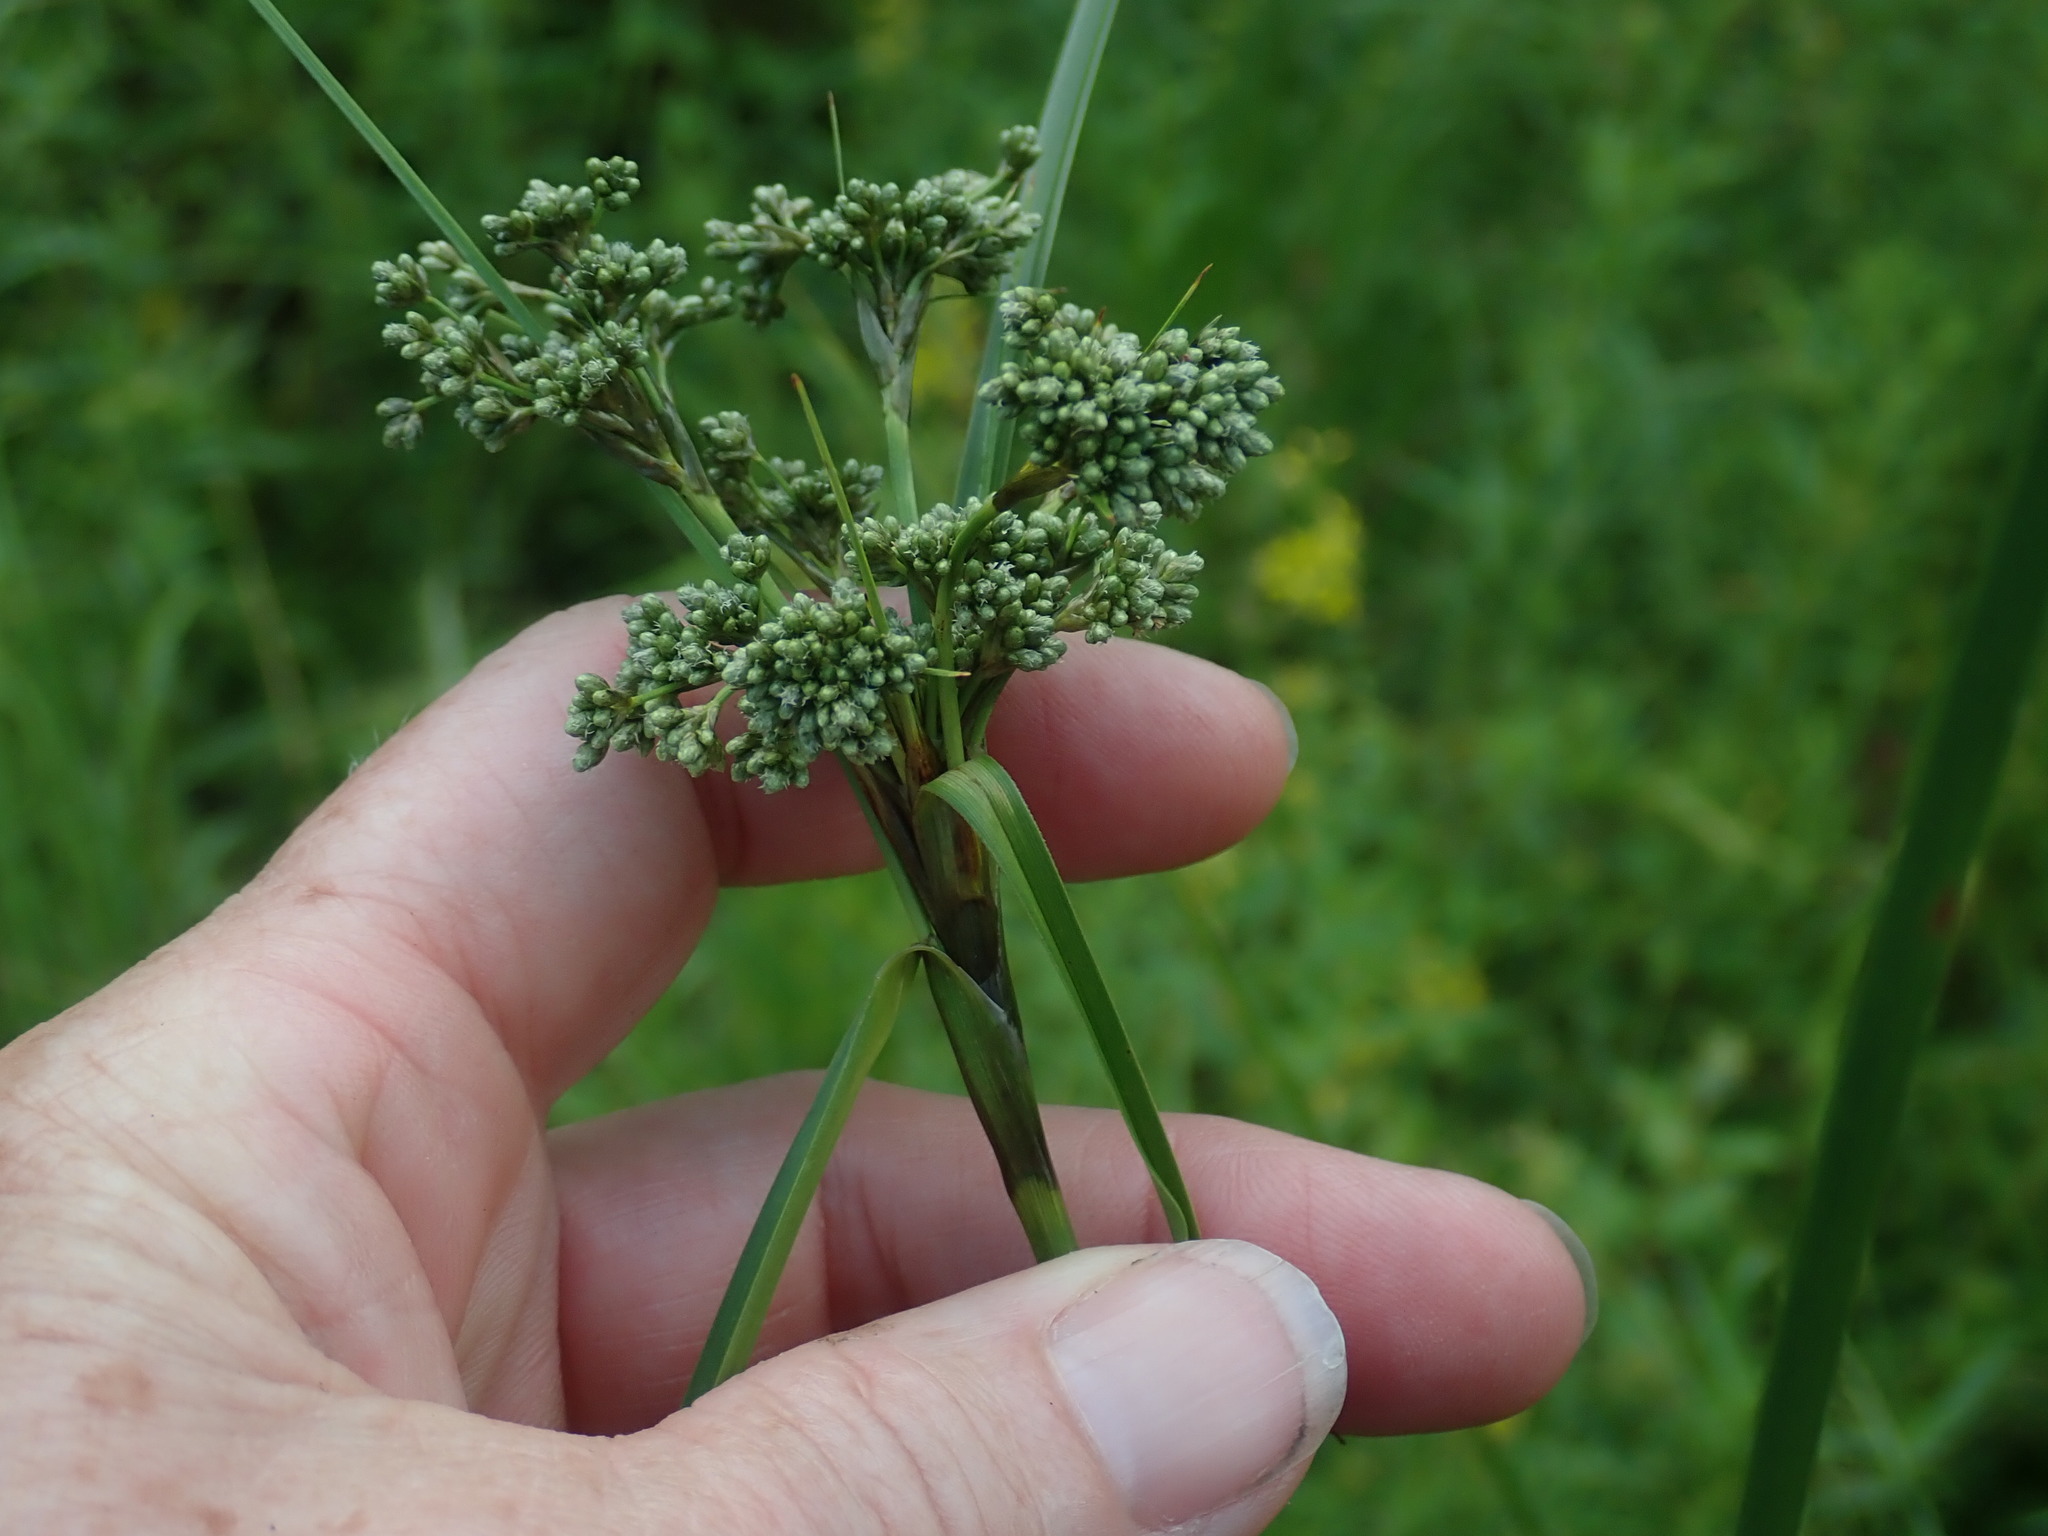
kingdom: Plantae
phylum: Tracheophyta
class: Liliopsida
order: Poales
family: Cyperaceae
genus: Scirpus
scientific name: Scirpus
